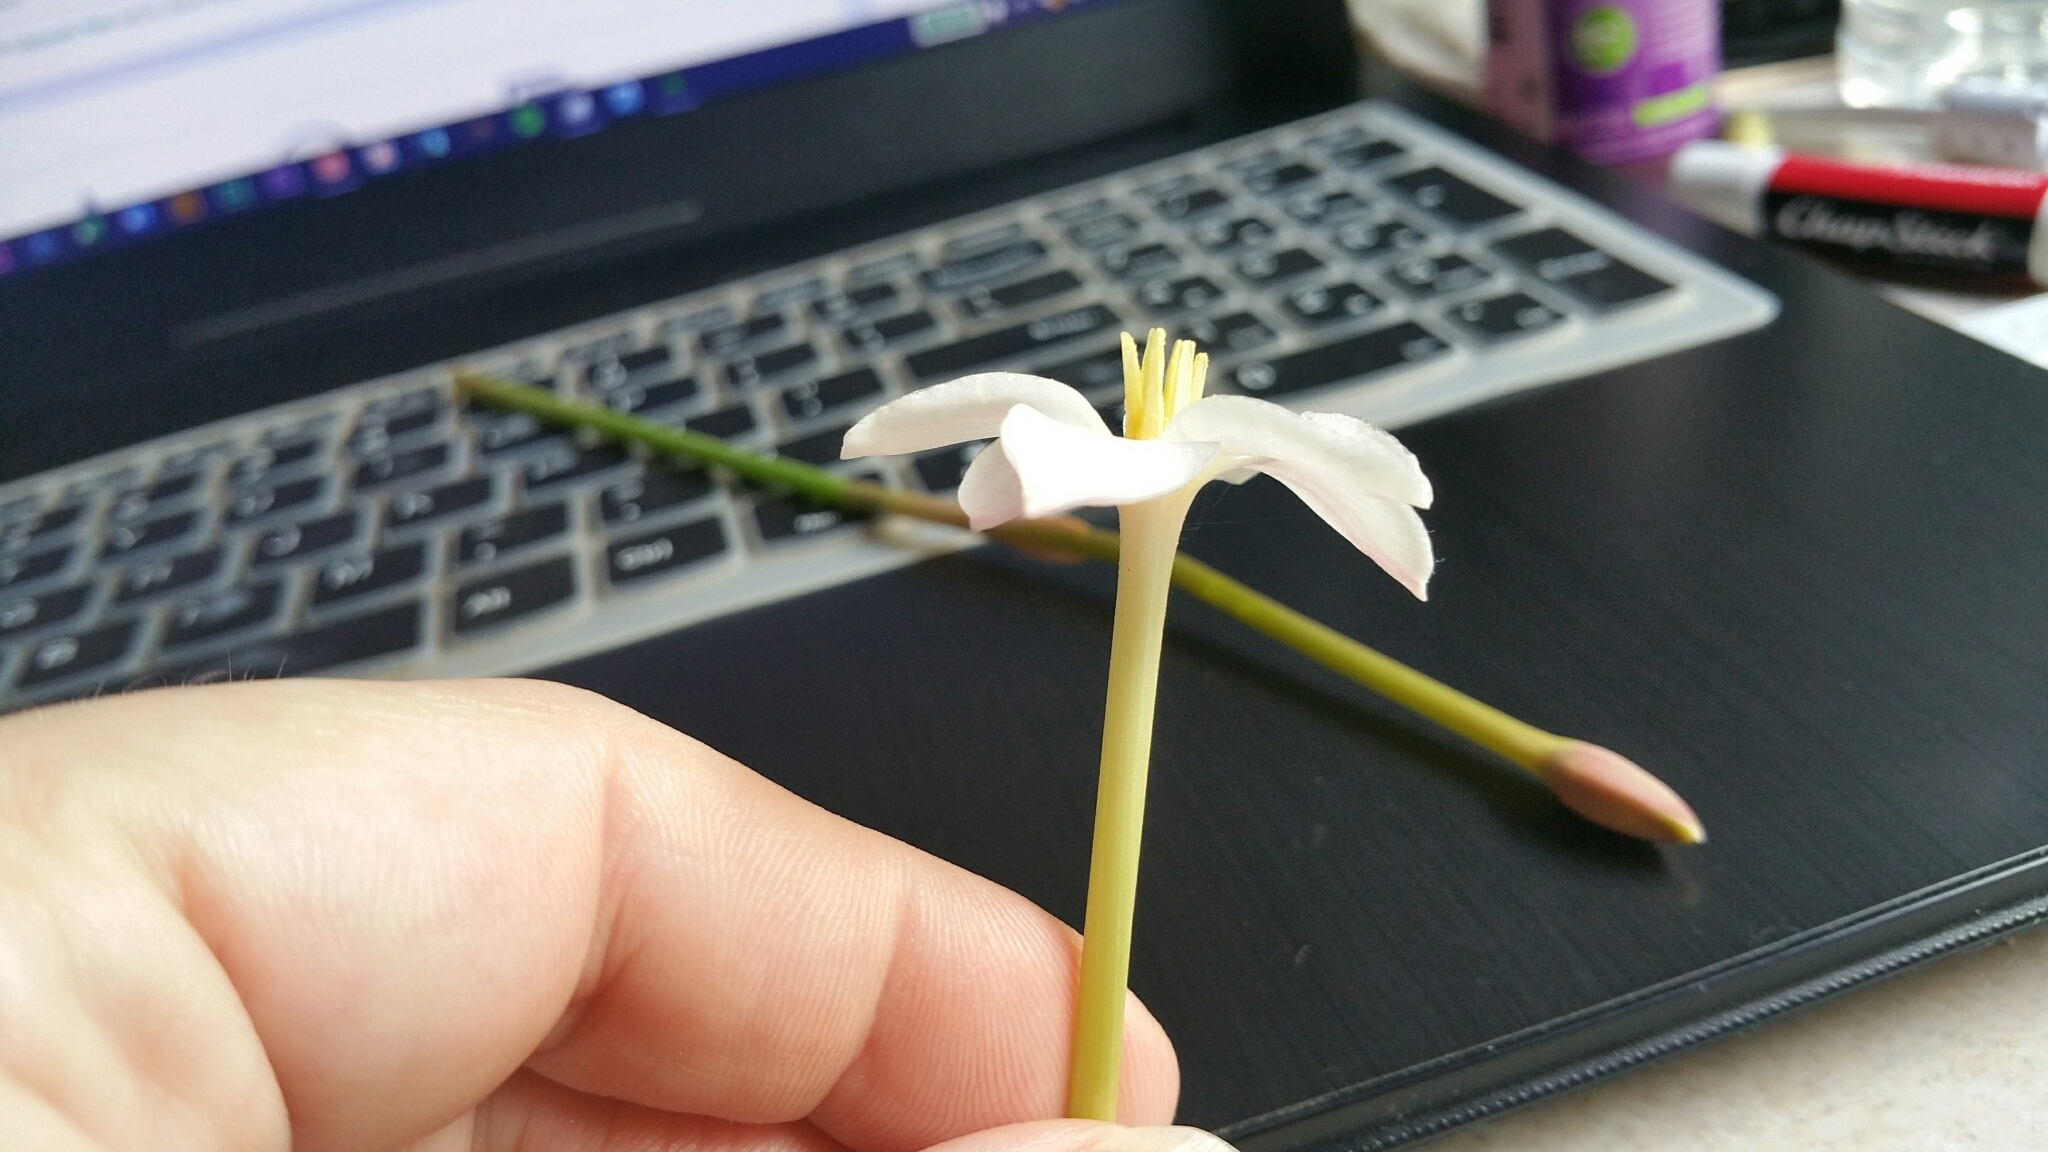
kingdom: Plantae
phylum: Tracheophyta
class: Liliopsida
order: Asparagales
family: Amaryllidaceae
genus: Zephyranthes
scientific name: Zephyranthes chlorosolen
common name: Evening rain-lily
